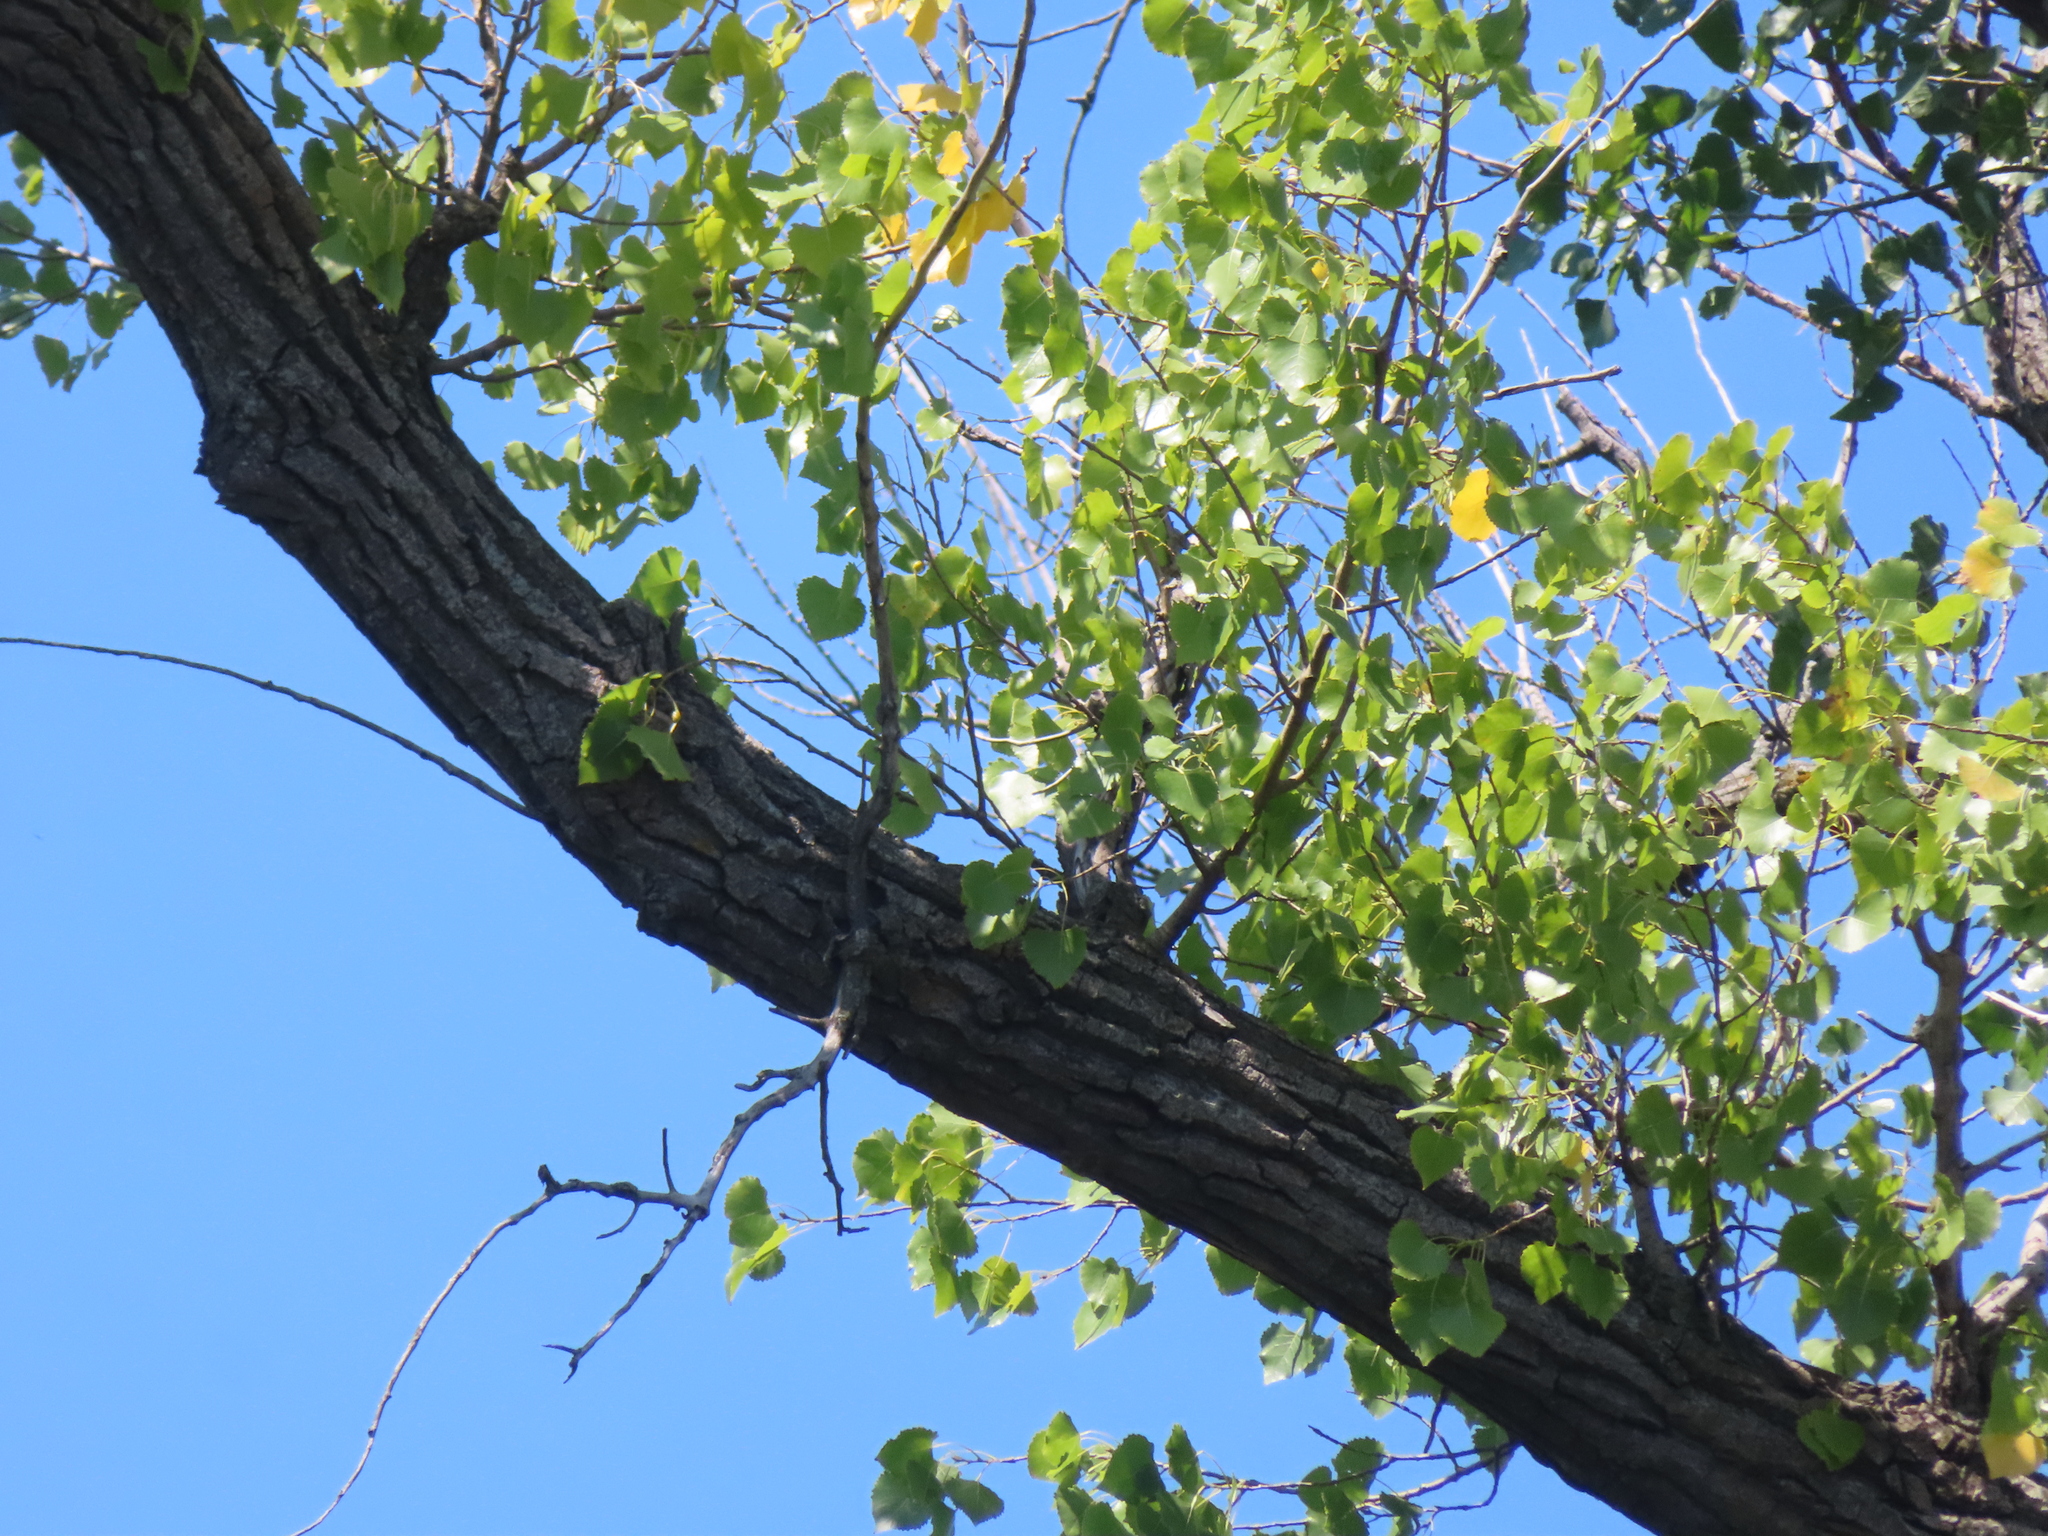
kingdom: Plantae
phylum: Tracheophyta
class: Magnoliopsida
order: Malpighiales
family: Salicaceae
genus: Populus
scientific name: Populus deltoides
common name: Eastern cottonwood
